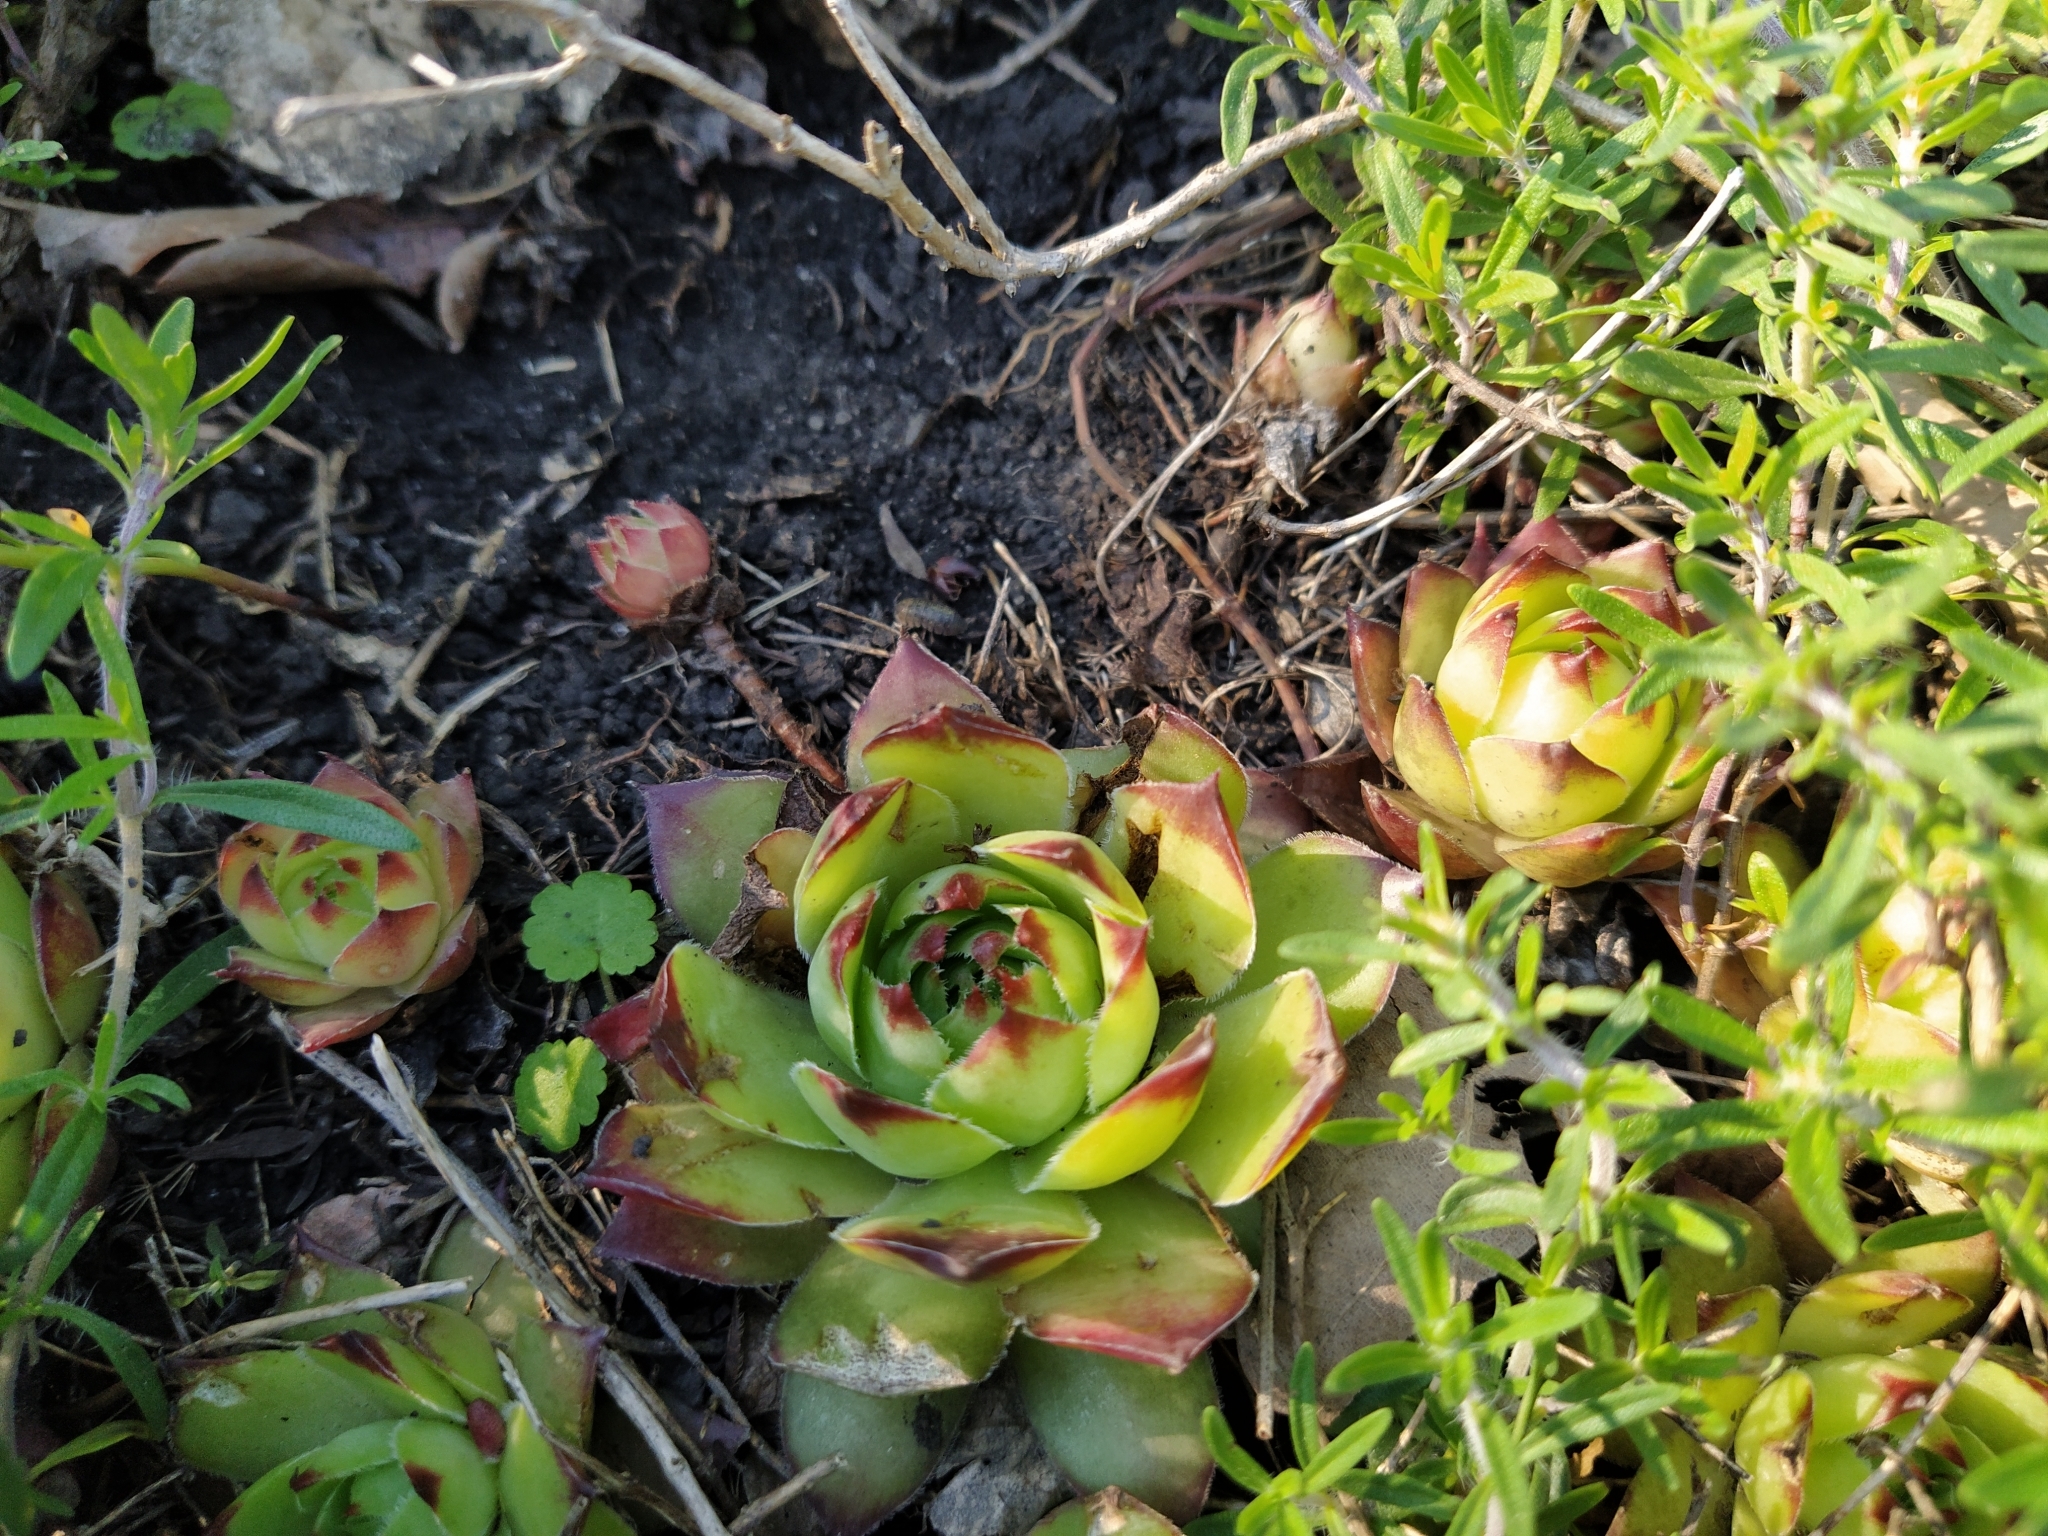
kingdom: Plantae
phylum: Tracheophyta
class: Magnoliopsida
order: Saxifragales
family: Crassulaceae
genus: Sempervivum
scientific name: Sempervivum ruthenicum
